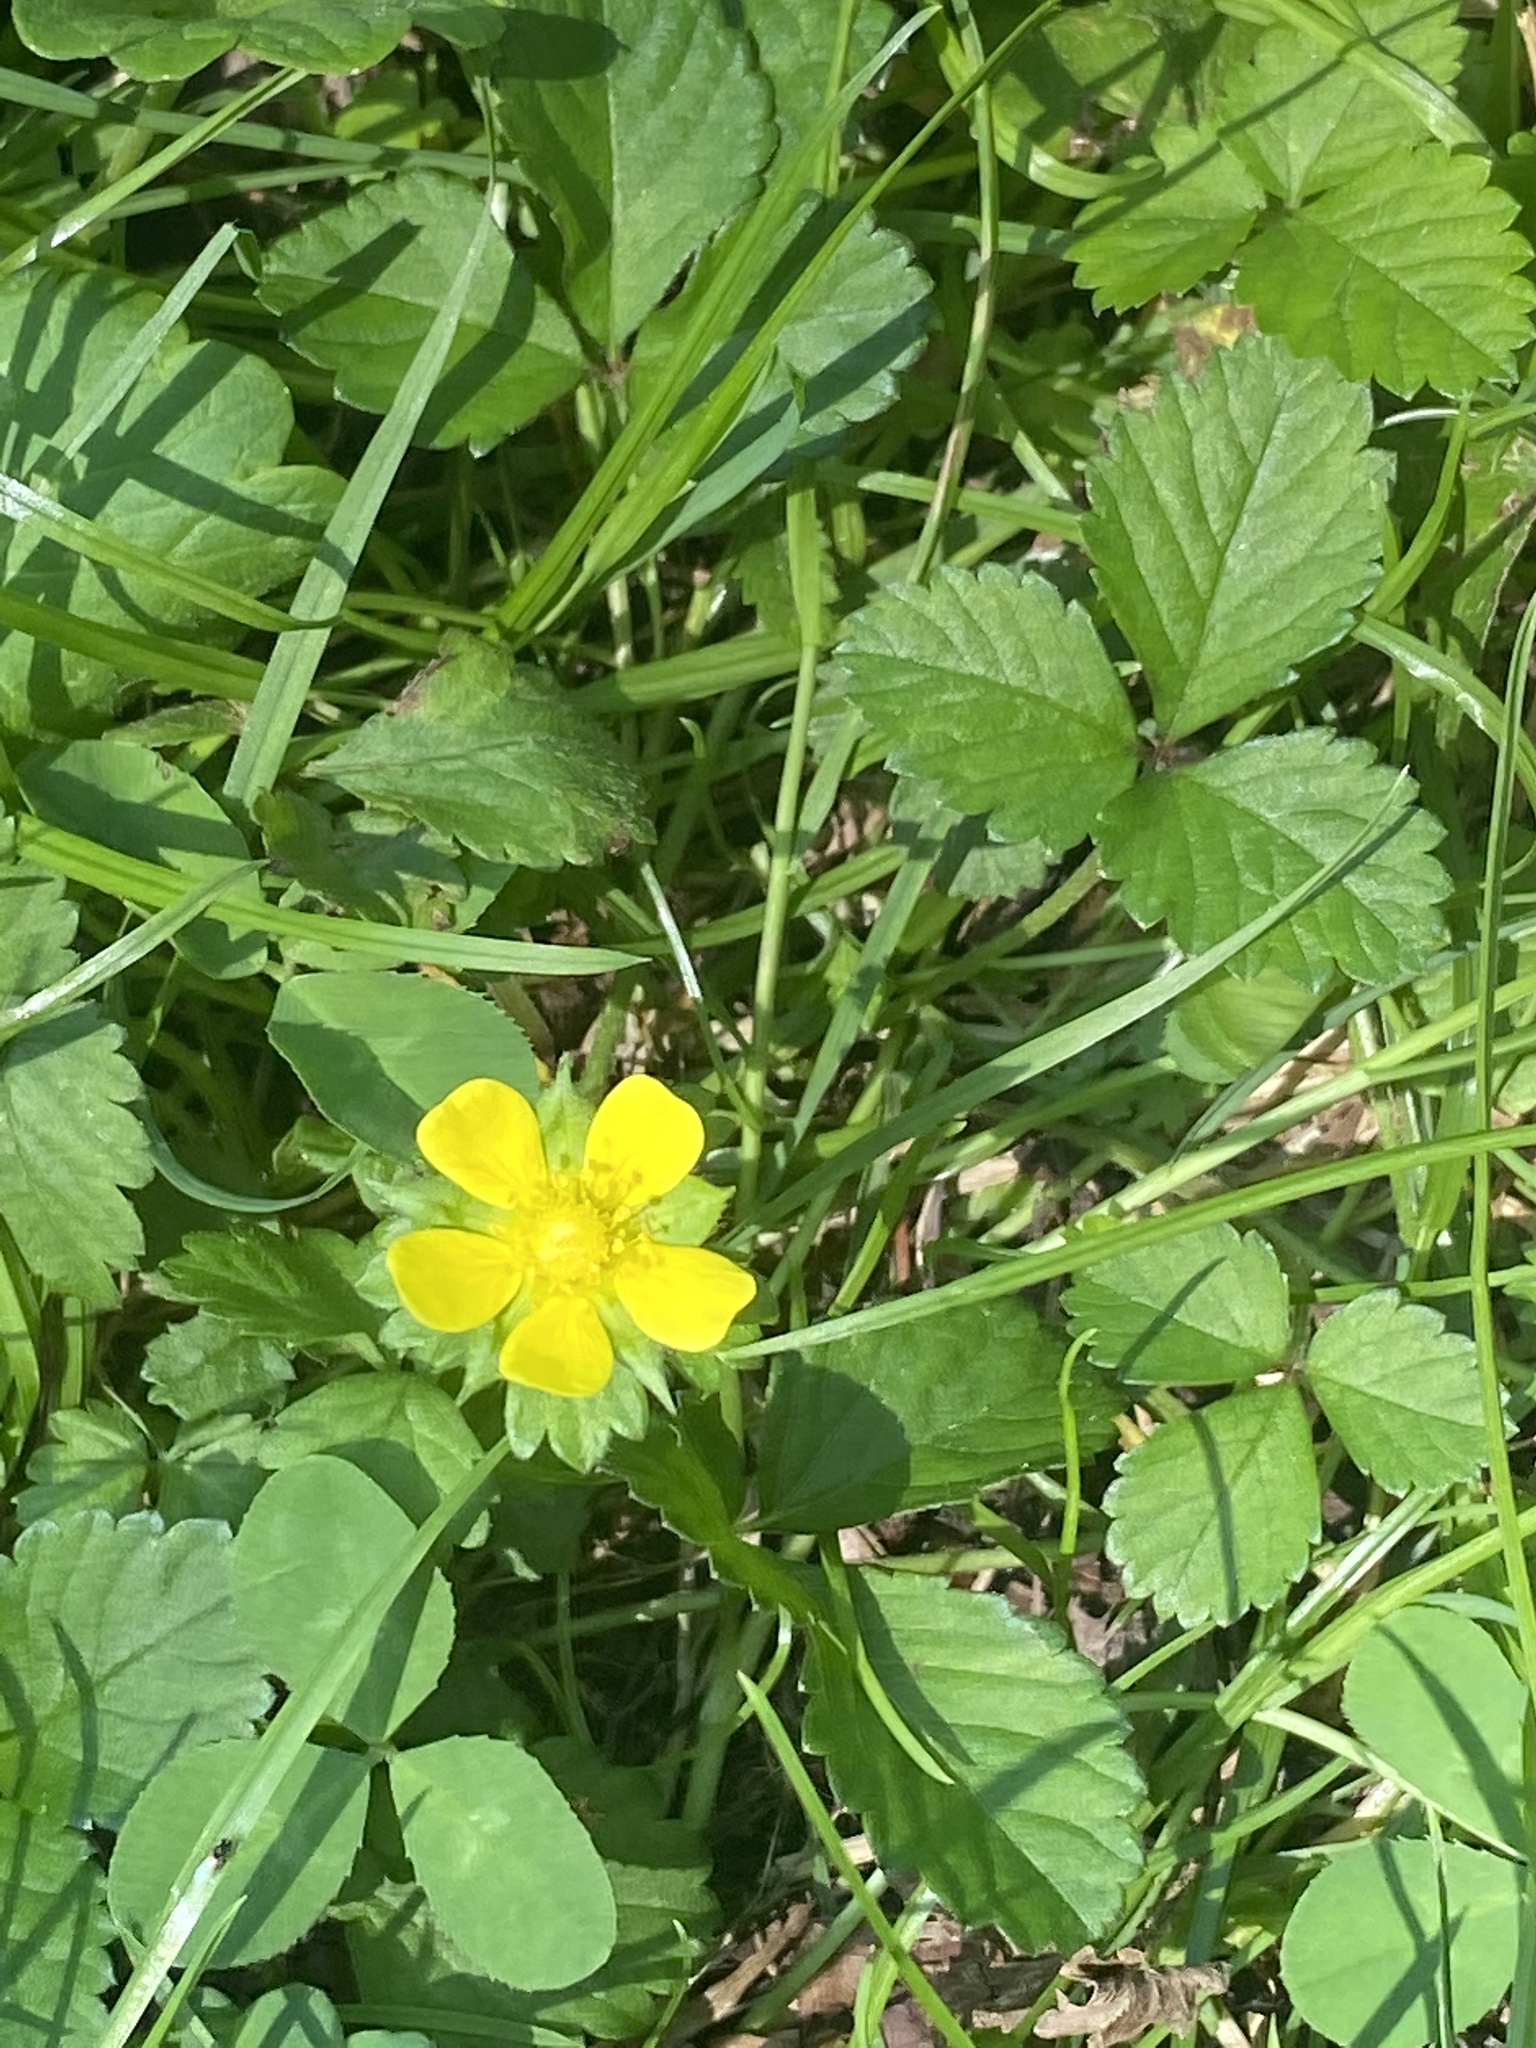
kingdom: Plantae
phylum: Tracheophyta
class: Magnoliopsida
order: Rosales
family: Rosaceae
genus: Potentilla
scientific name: Potentilla indica
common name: Yellow-flowered strawberry
